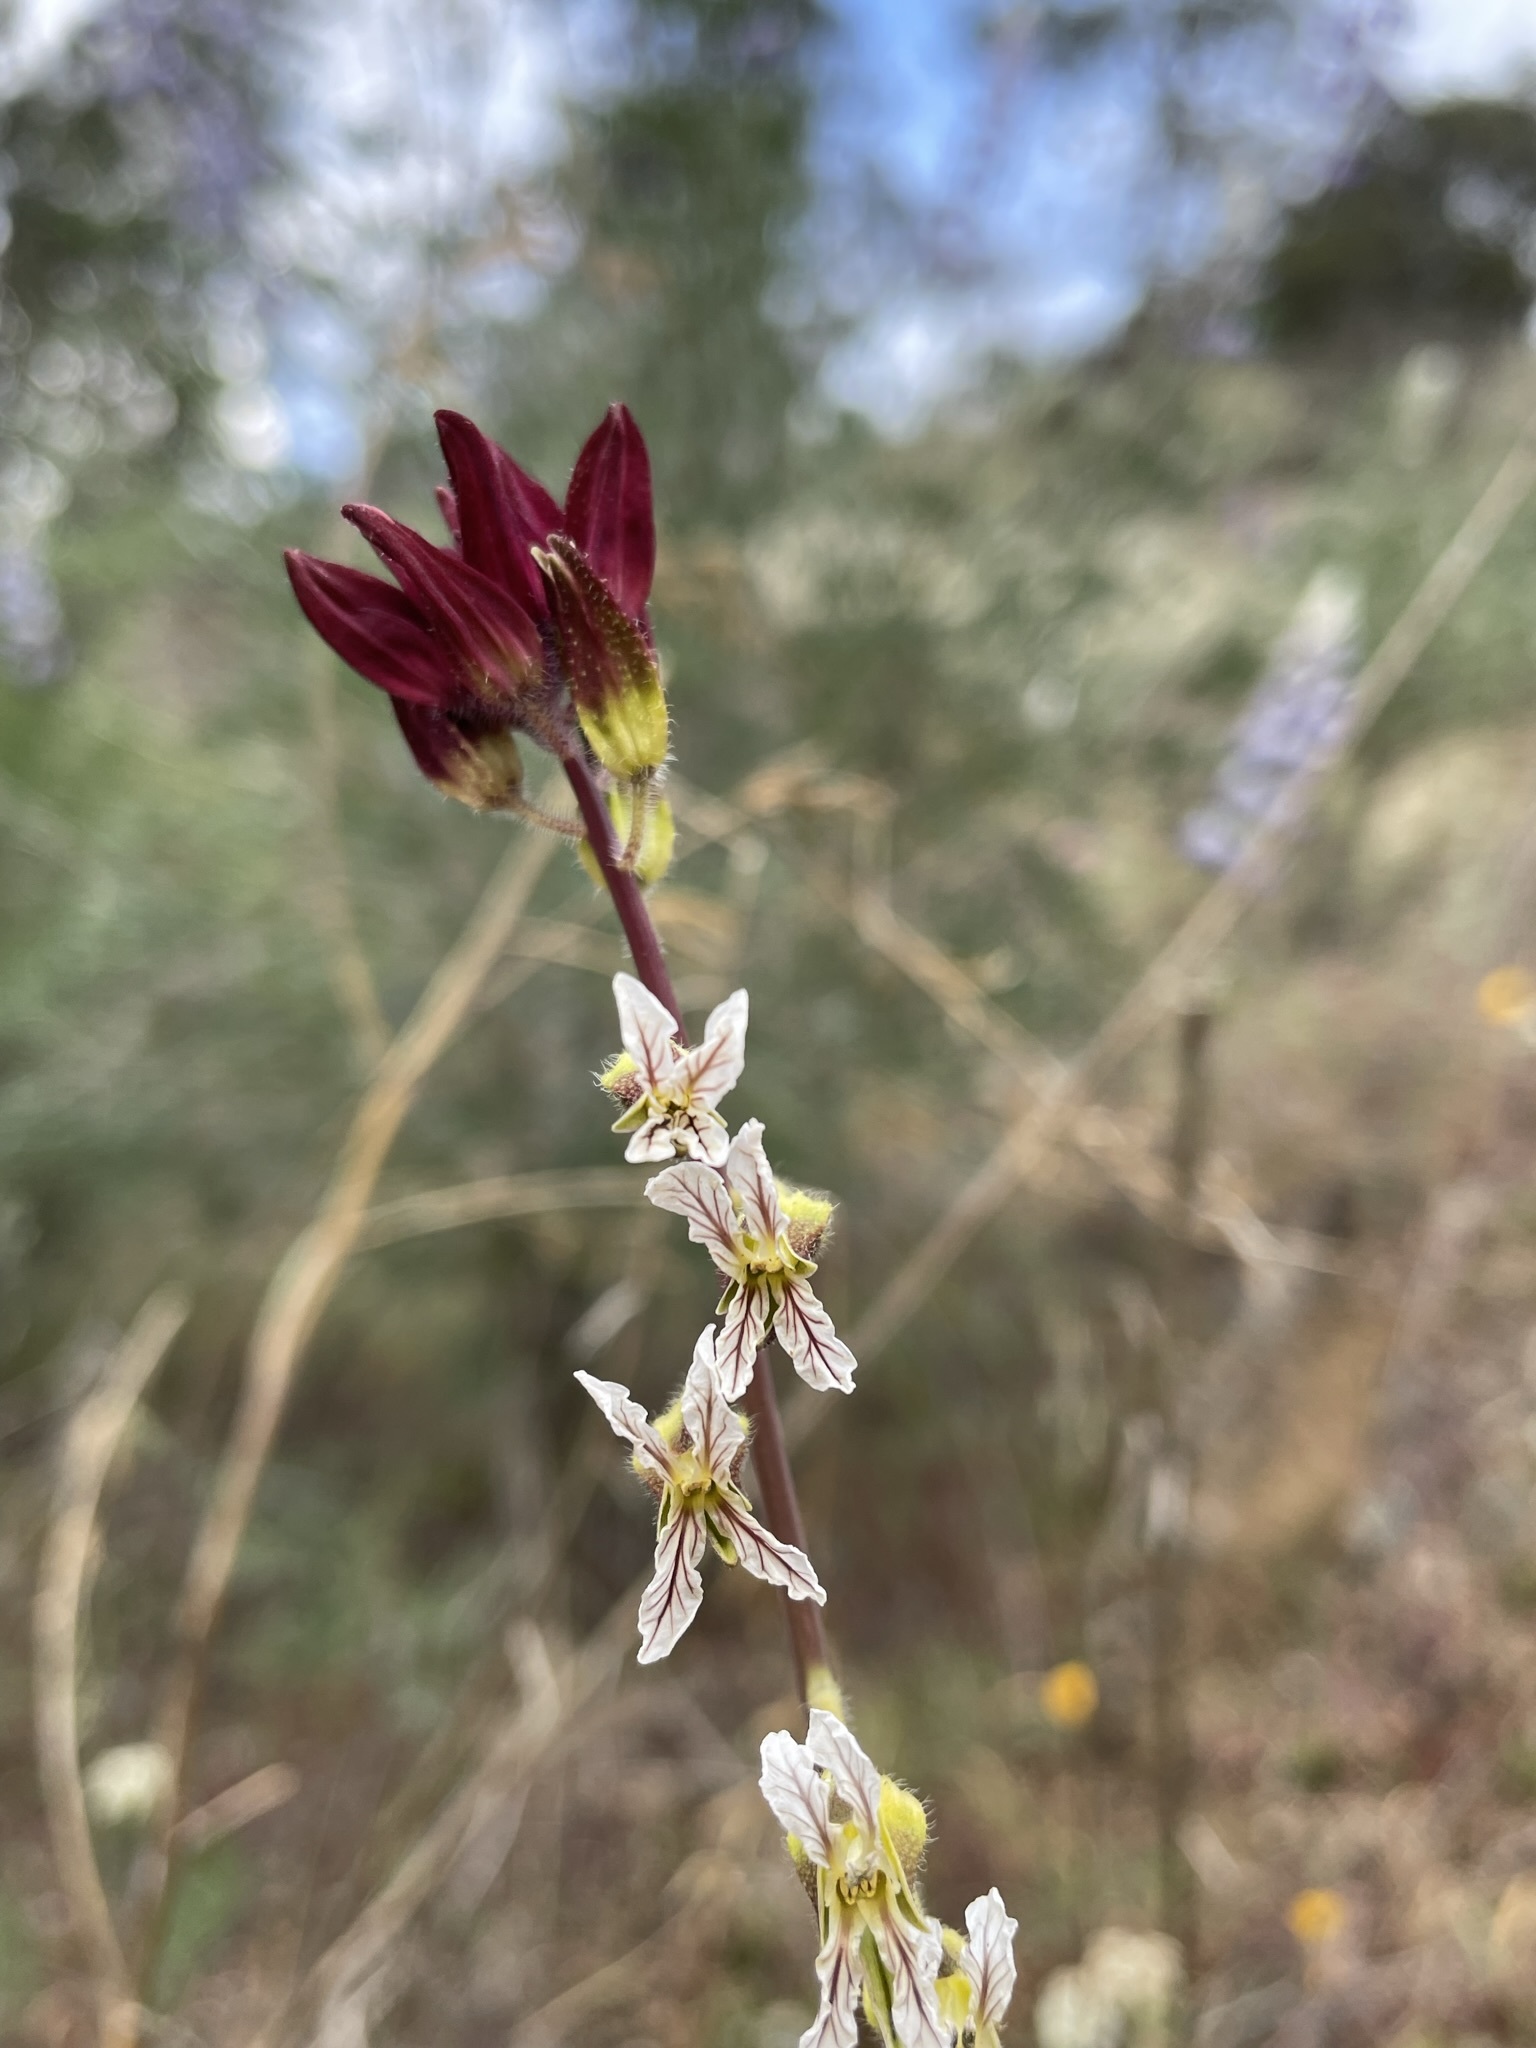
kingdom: Plantae
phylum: Tracheophyta
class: Magnoliopsida
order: Brassicales
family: Brassicaceae
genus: Streptanthus
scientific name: Streptanthus coulteri
